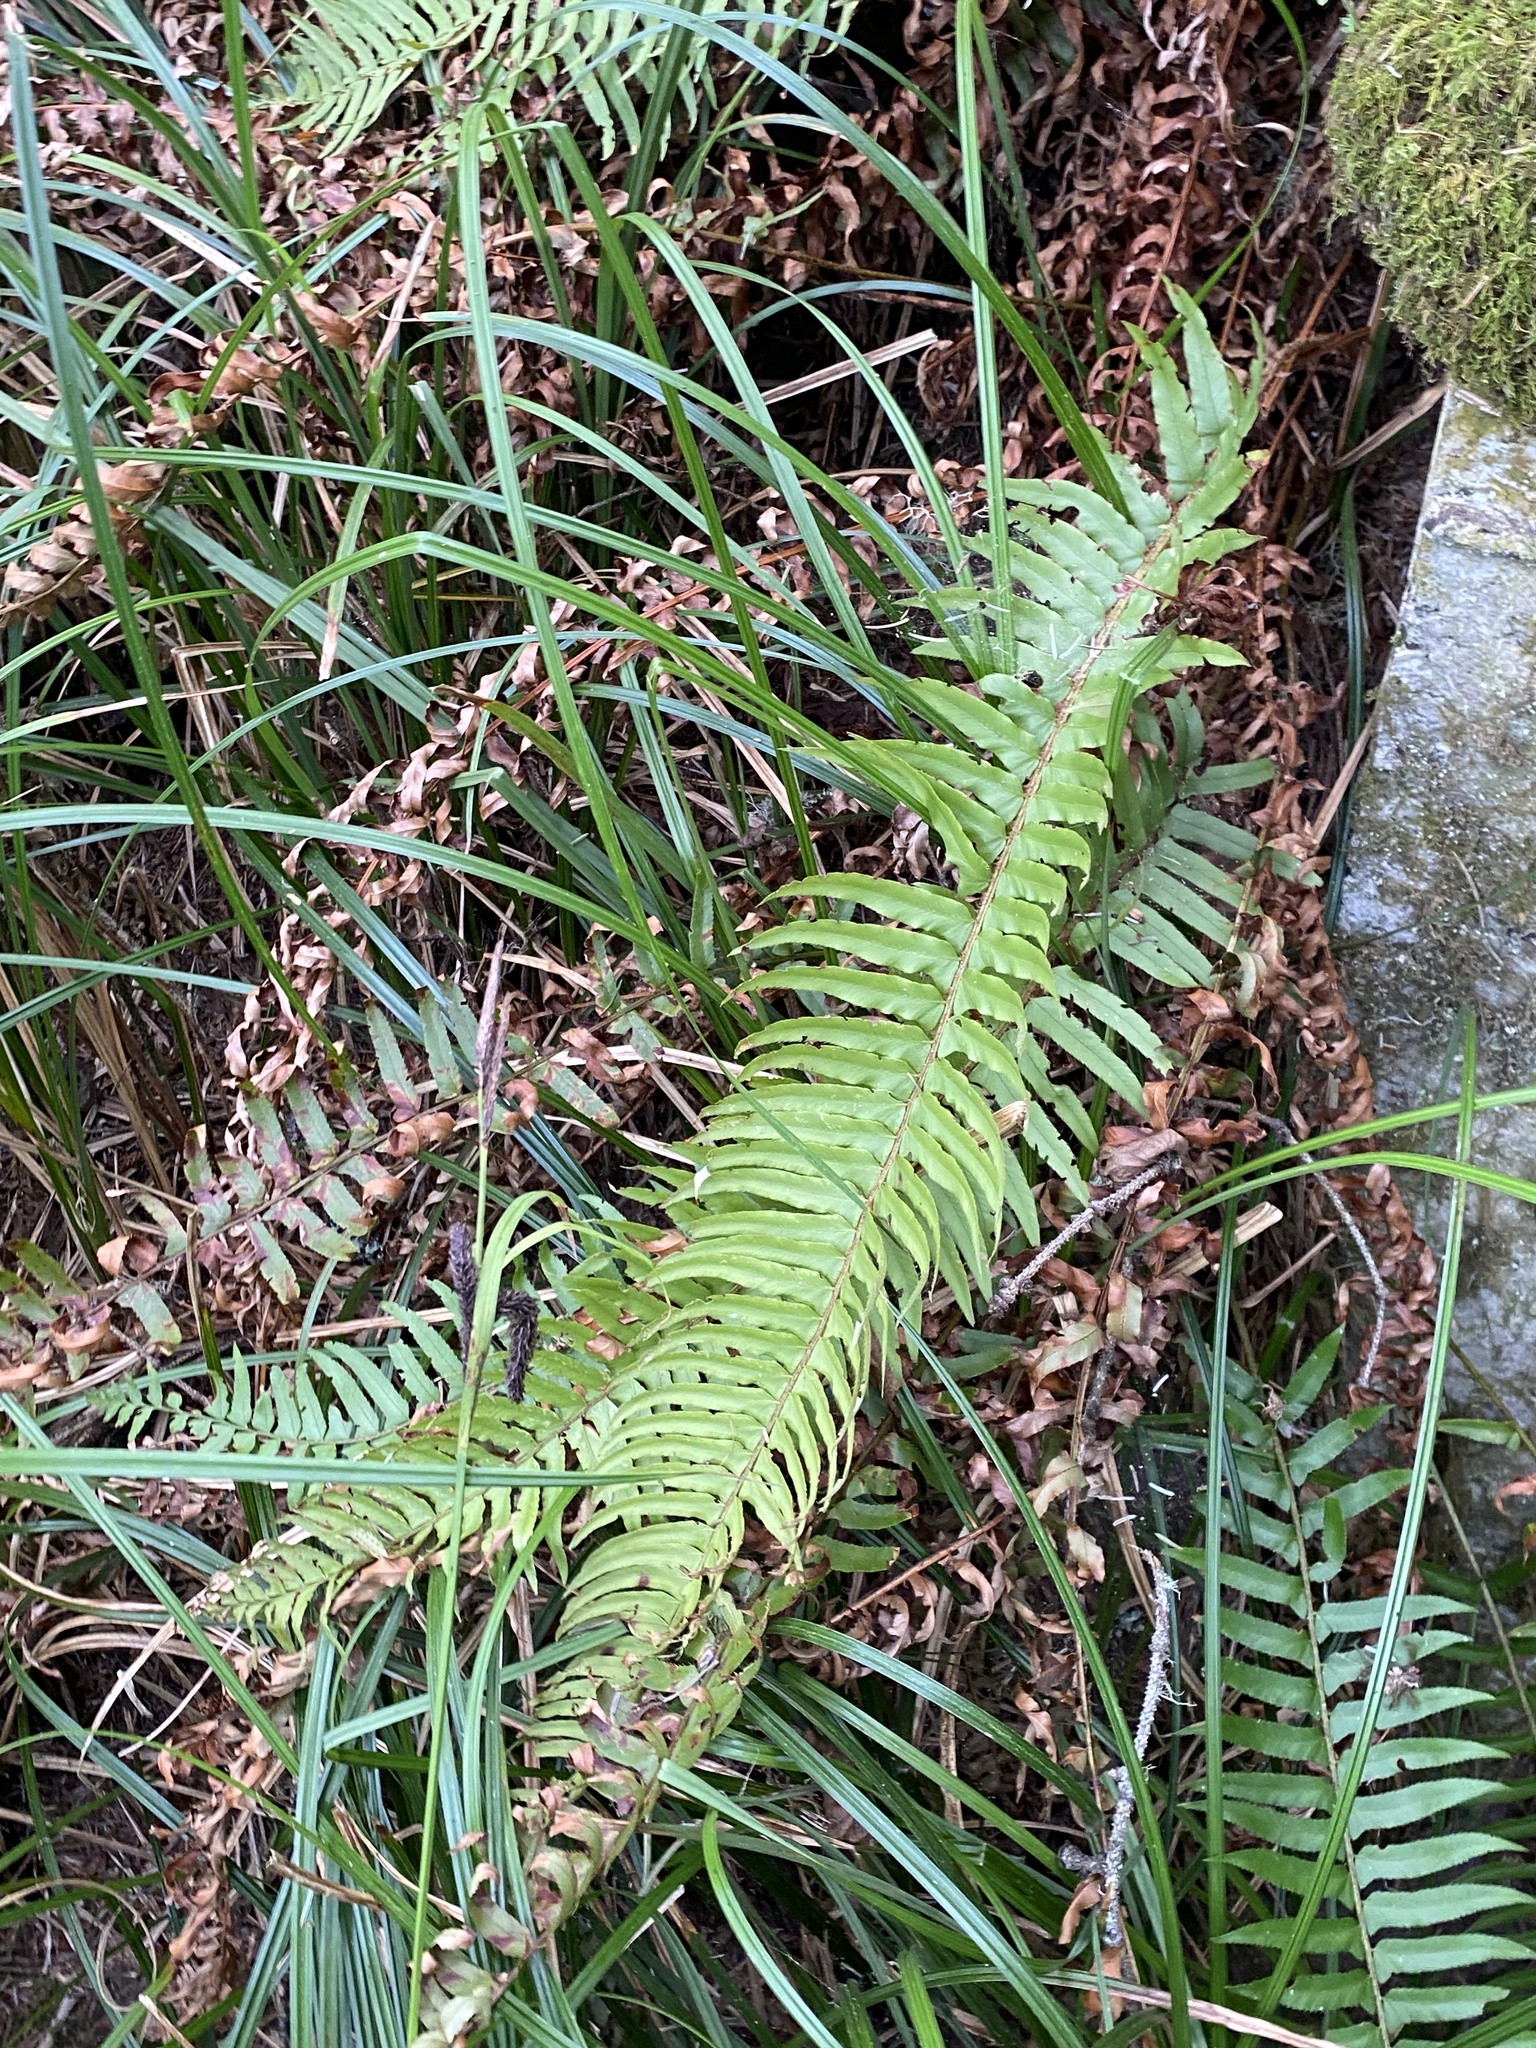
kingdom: Plantae
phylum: Tracheophyta
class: Polypodiopsida
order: Polypodiales
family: Dryopteridaceae
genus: Polystichum
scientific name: Polystichum munitum
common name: Western sword-fern
